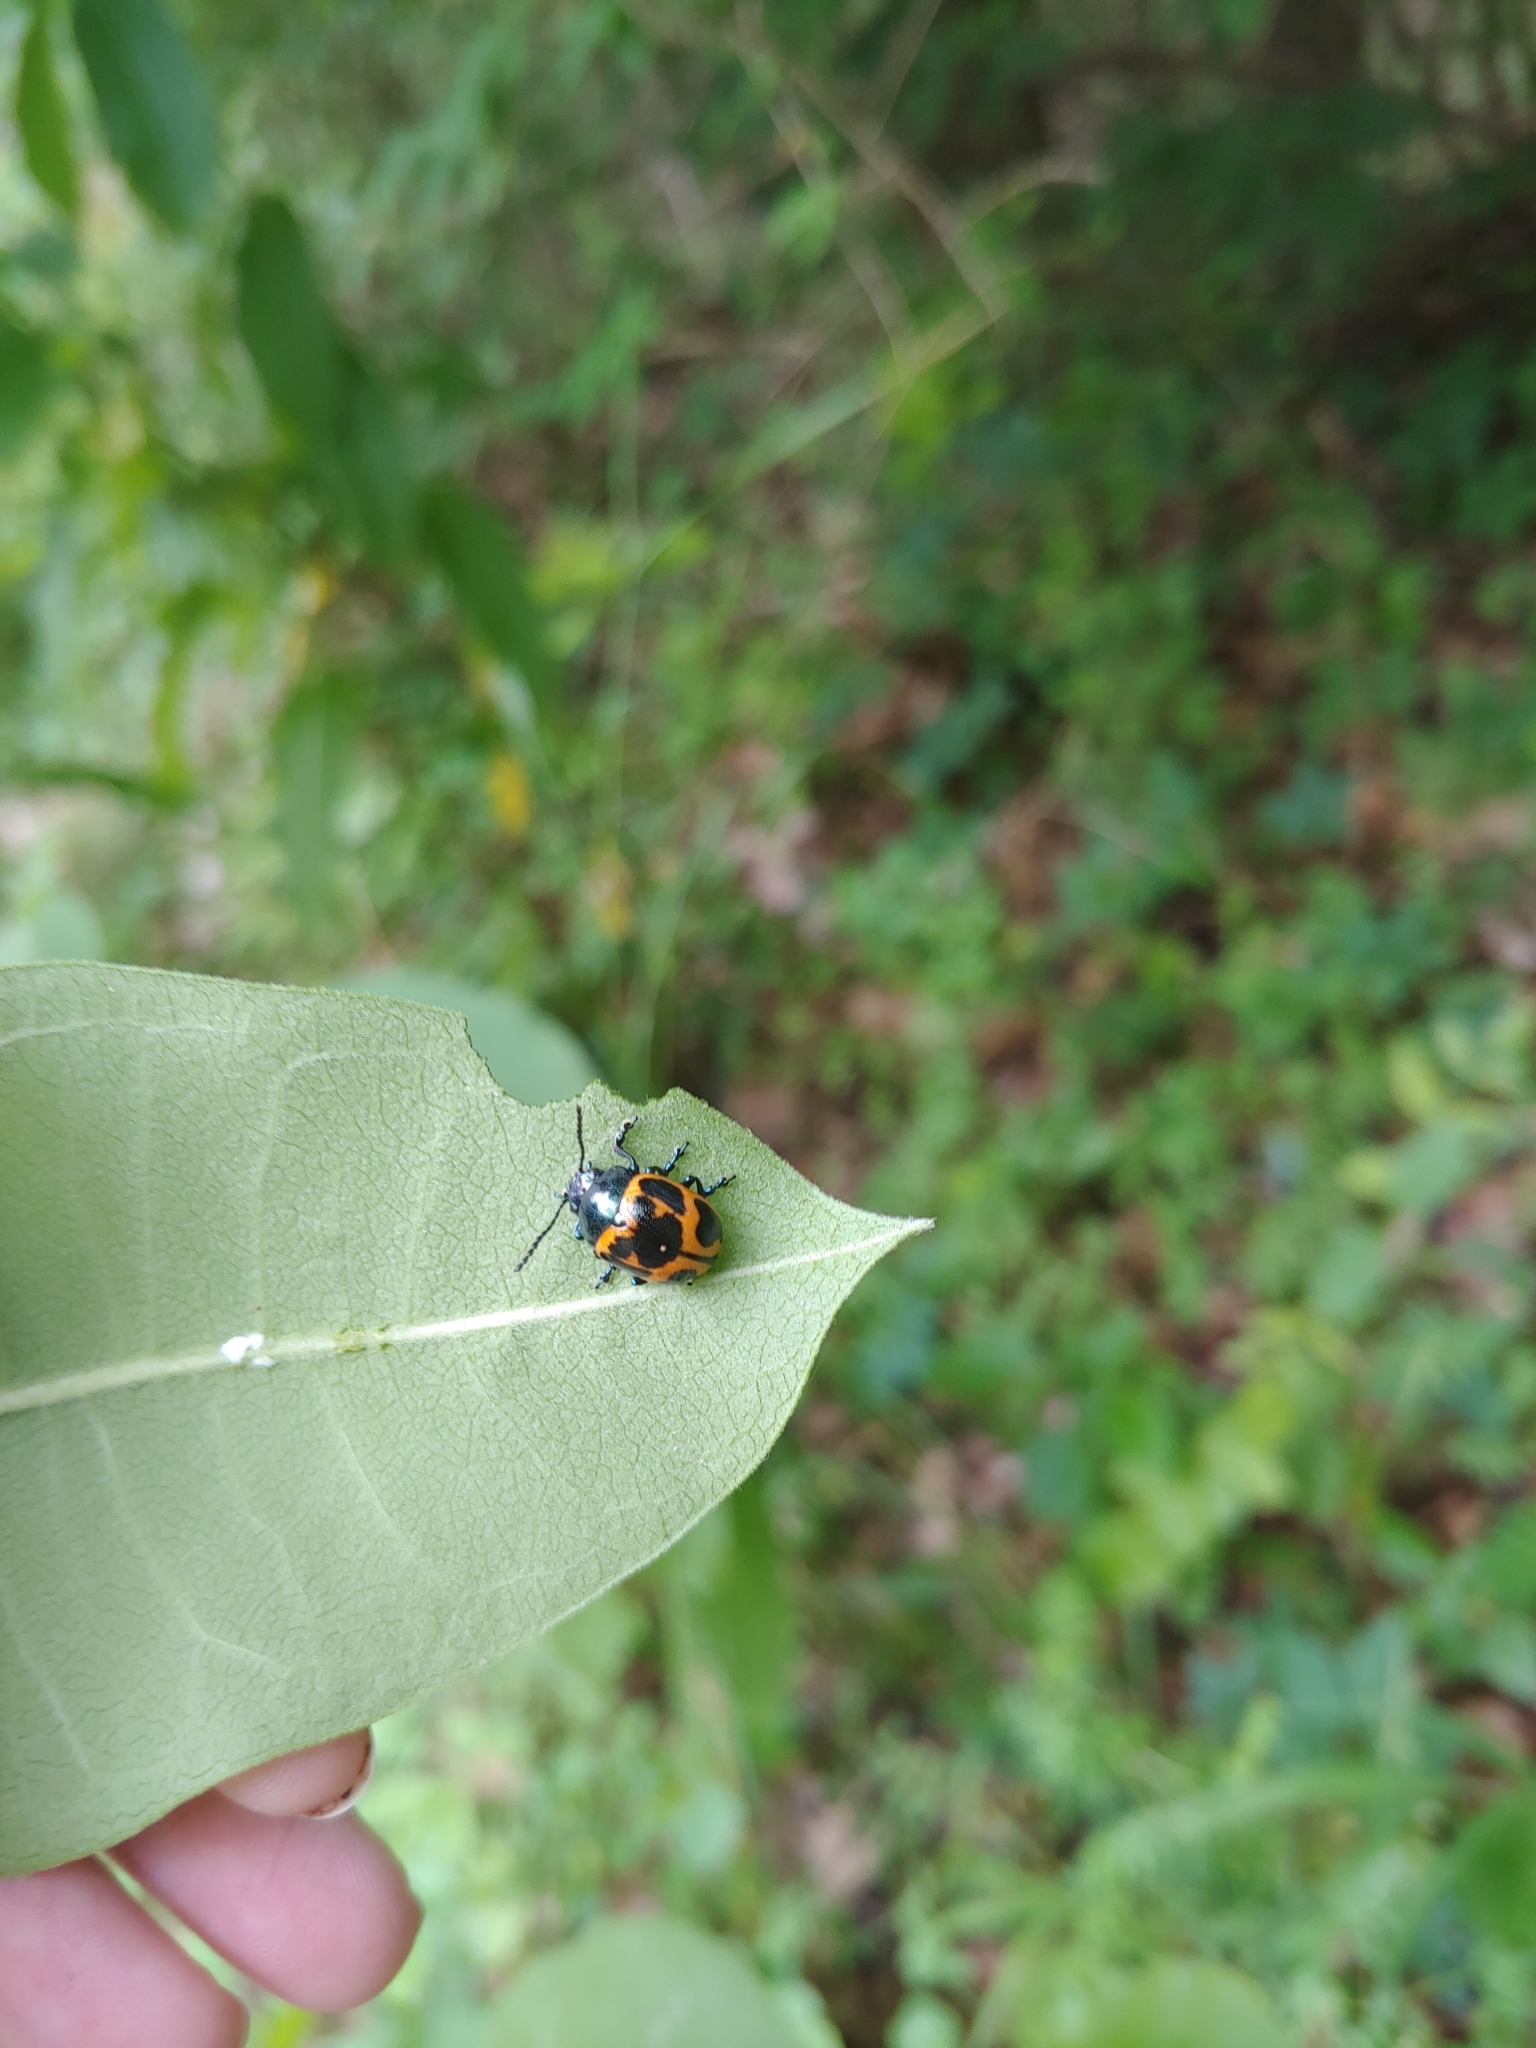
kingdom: Animalia
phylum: Arthropoda
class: Insecta
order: Coleoptera
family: Chrysomelidae
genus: Labidomera
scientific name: Labidomera clivicollis
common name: Swamp milkweed leaf beetle
